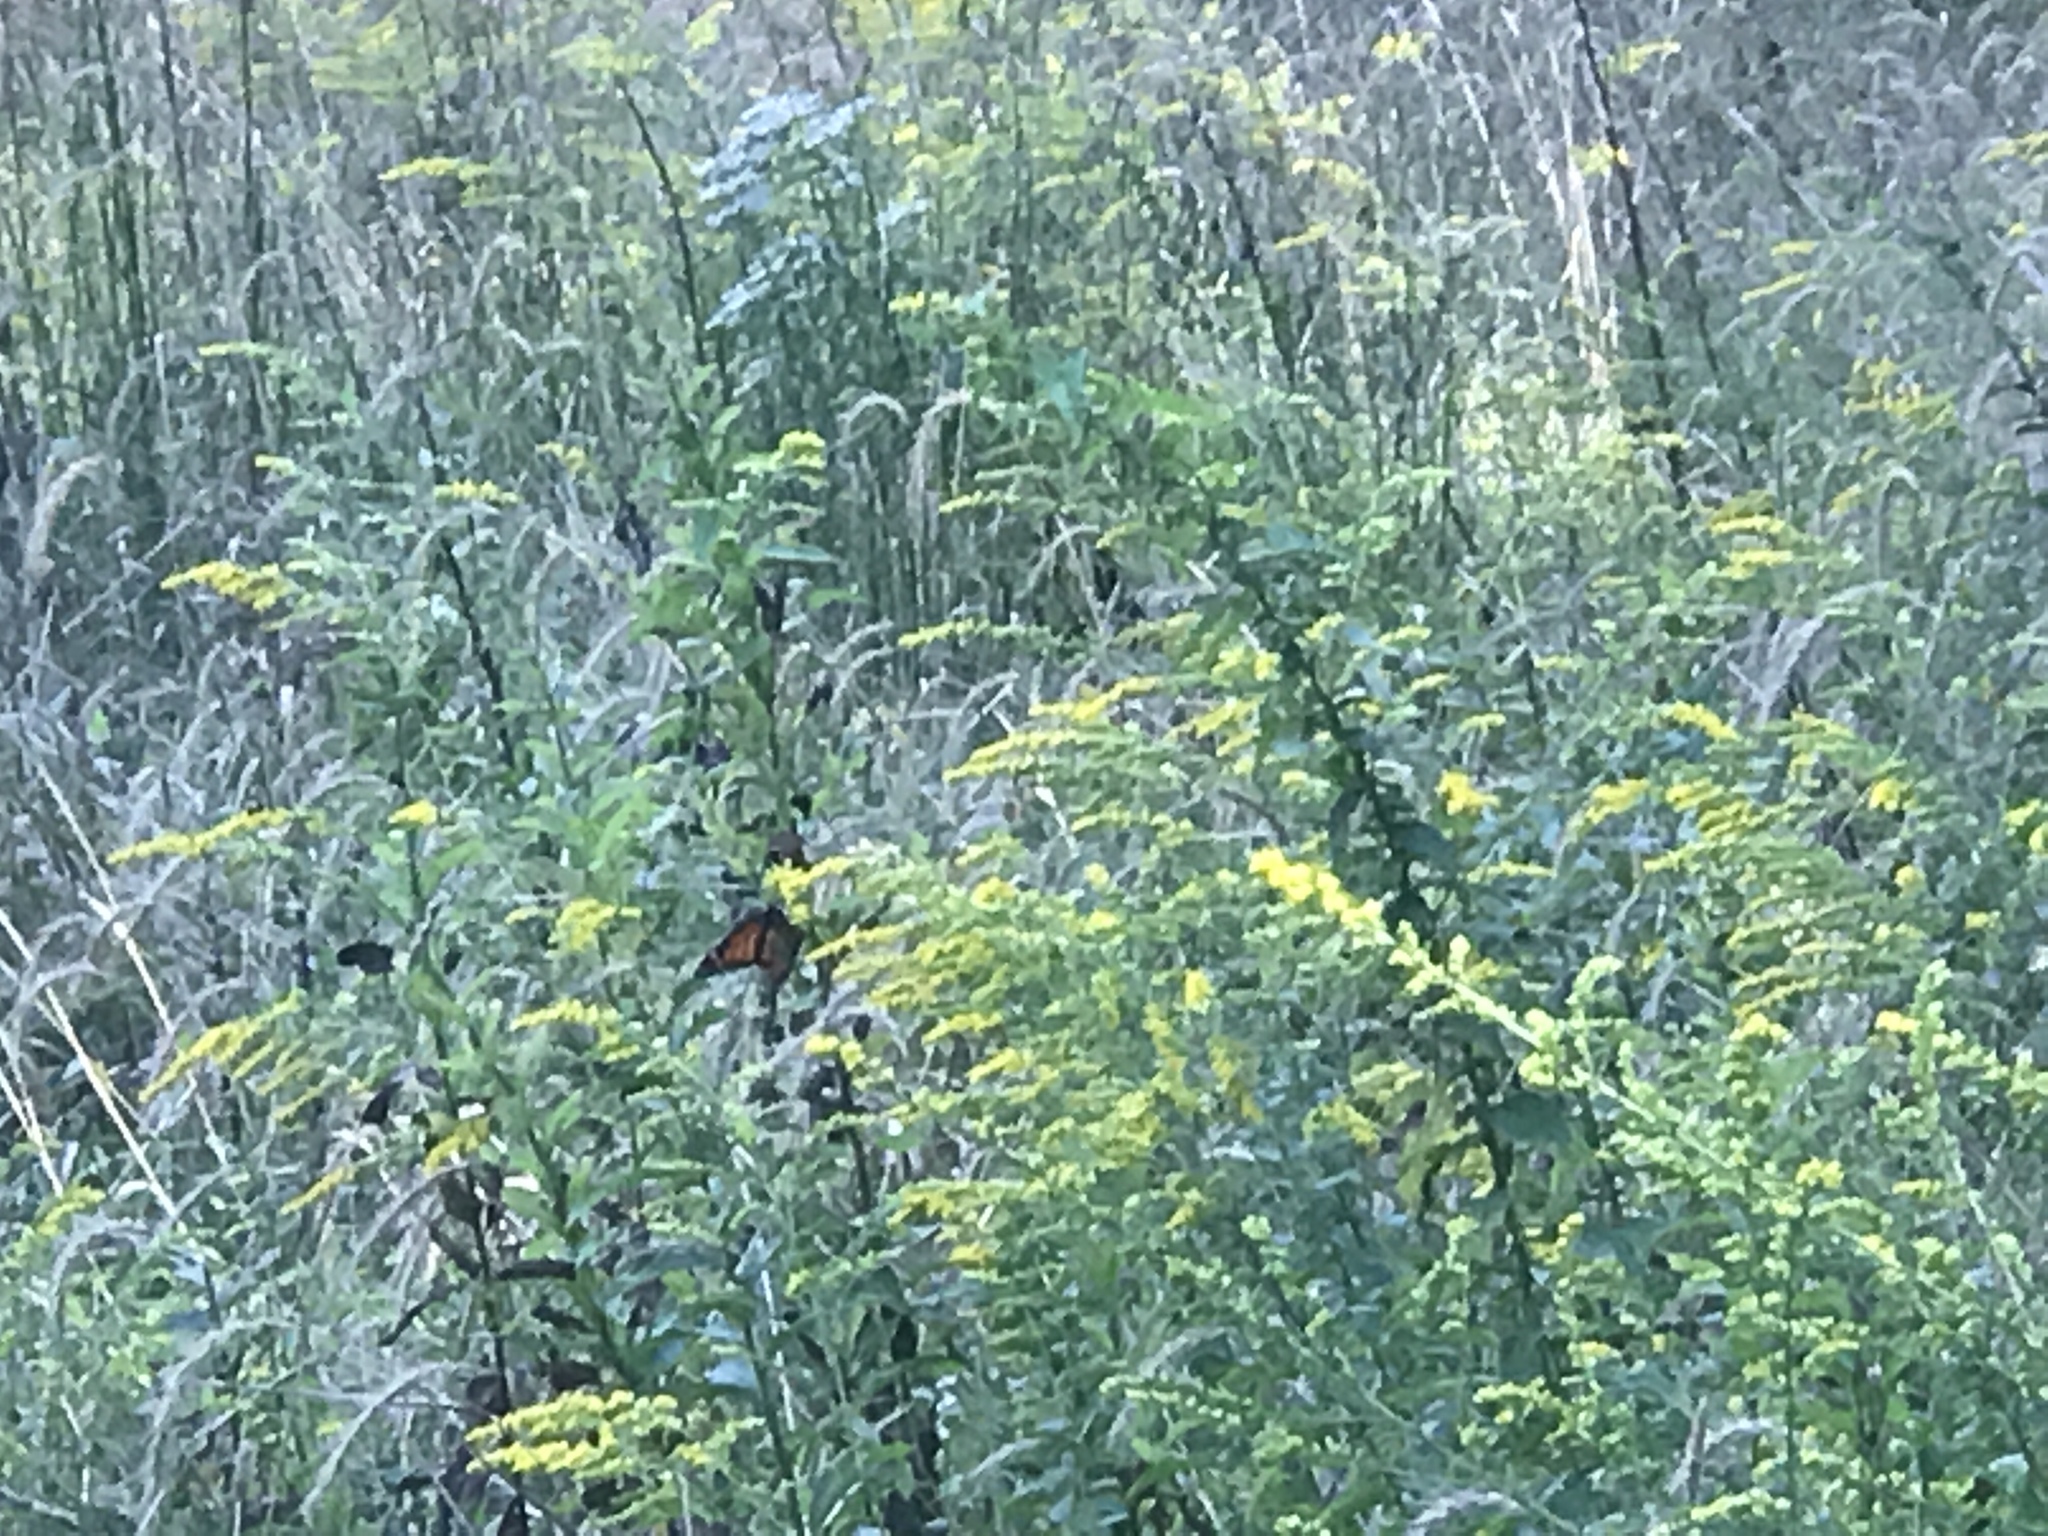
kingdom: Animalia
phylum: Arthropoda
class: Insecta
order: Lepidoptera
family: Nymphalidae
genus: Danaus
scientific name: Danaus plexippus
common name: Monarch
